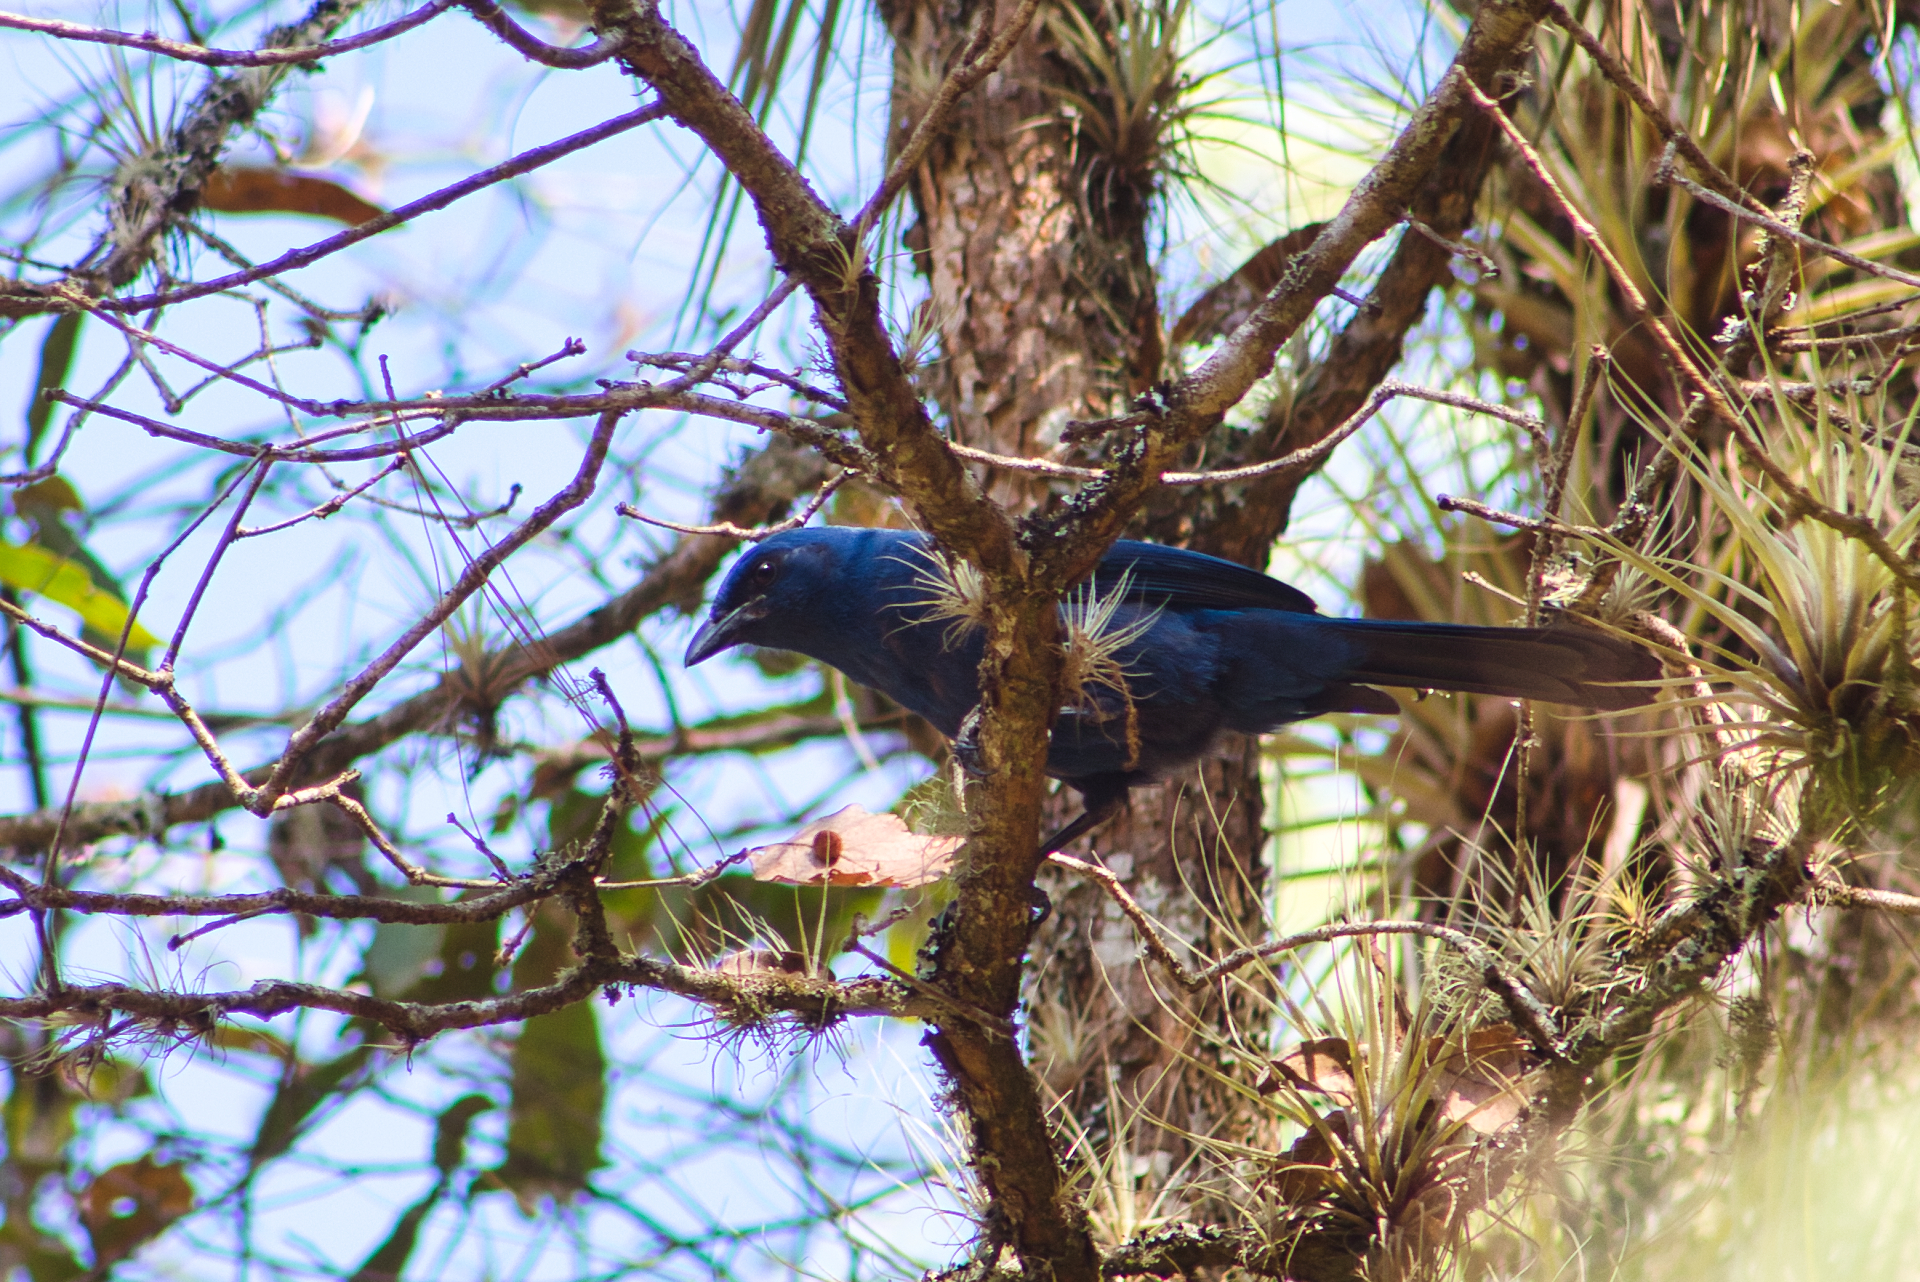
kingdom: Animalia
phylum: Chordata
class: Aves
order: Passeriformes
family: Corvidae
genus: Aphelocoma
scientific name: Aphelocoma unicolor
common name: Unicolored jay
